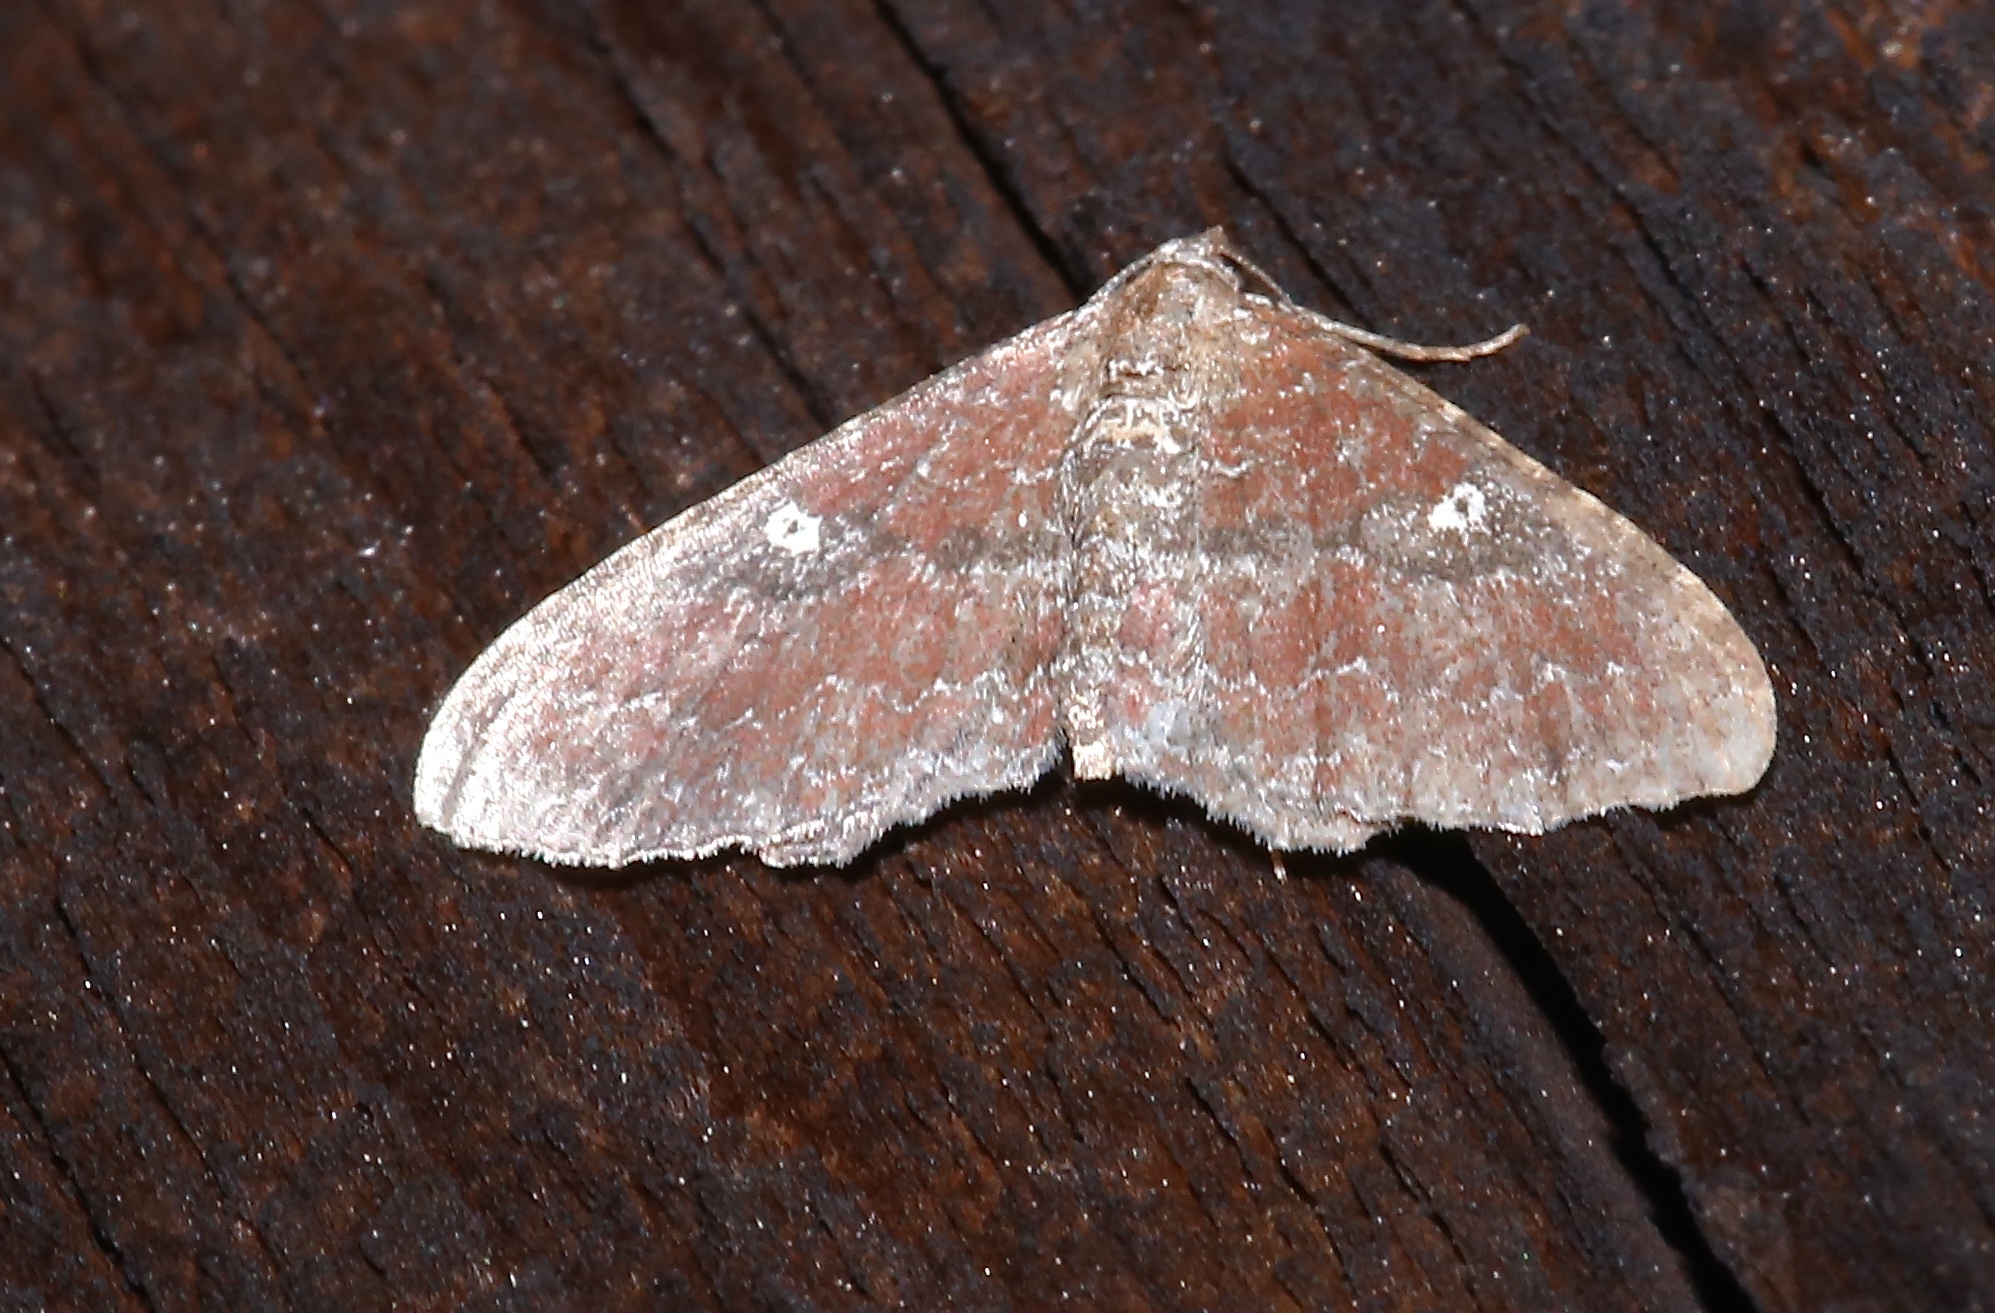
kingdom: Animalia
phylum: Arthropoda
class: Insecta
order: Lepidoptera
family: Geometridae
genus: Orthonama
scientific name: Orthonama obstipata
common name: The gem
